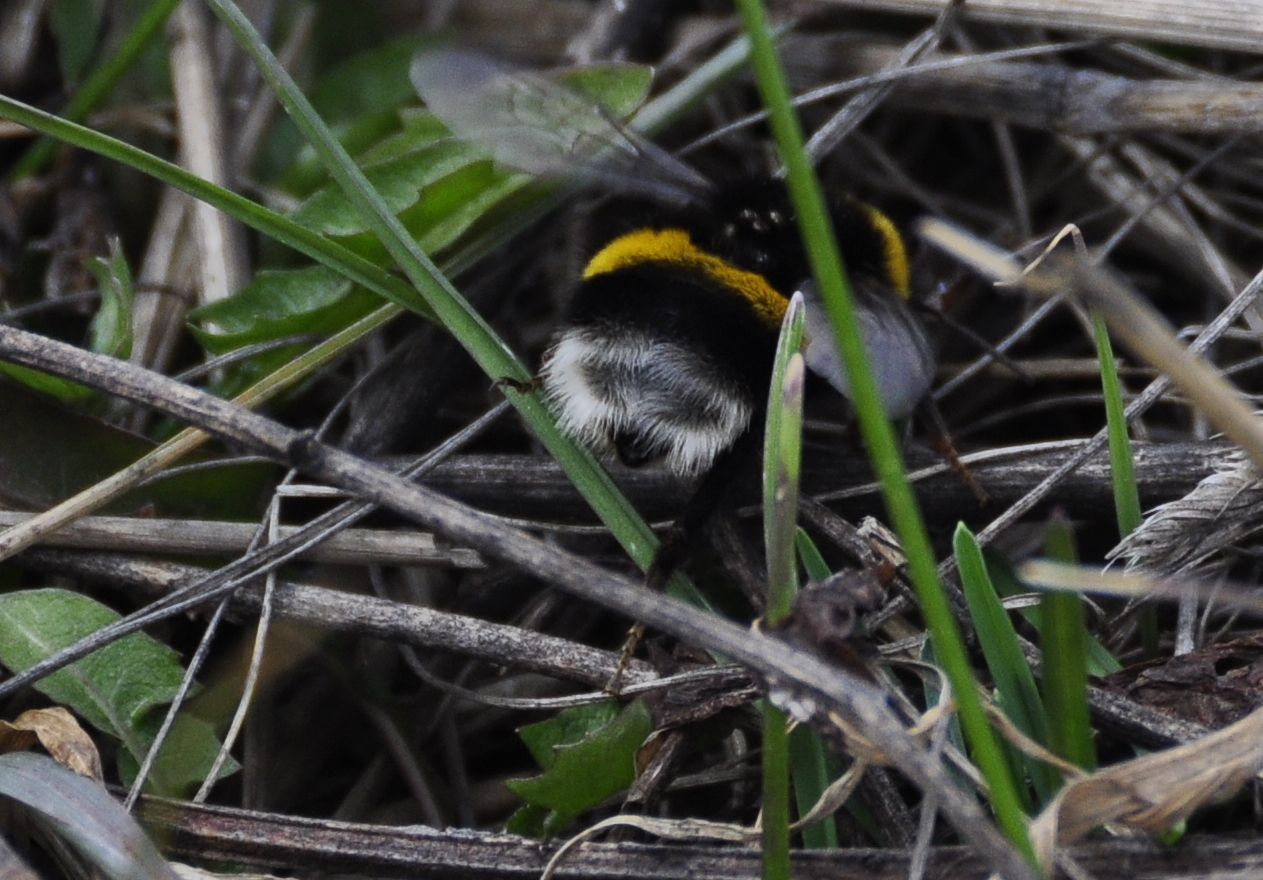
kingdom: Animalia
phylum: Arthropoda
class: Insecta
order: Hymenoptera
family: Apidae
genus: Bombus
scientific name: Bombus lucorum
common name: White-tailed bumblebee
